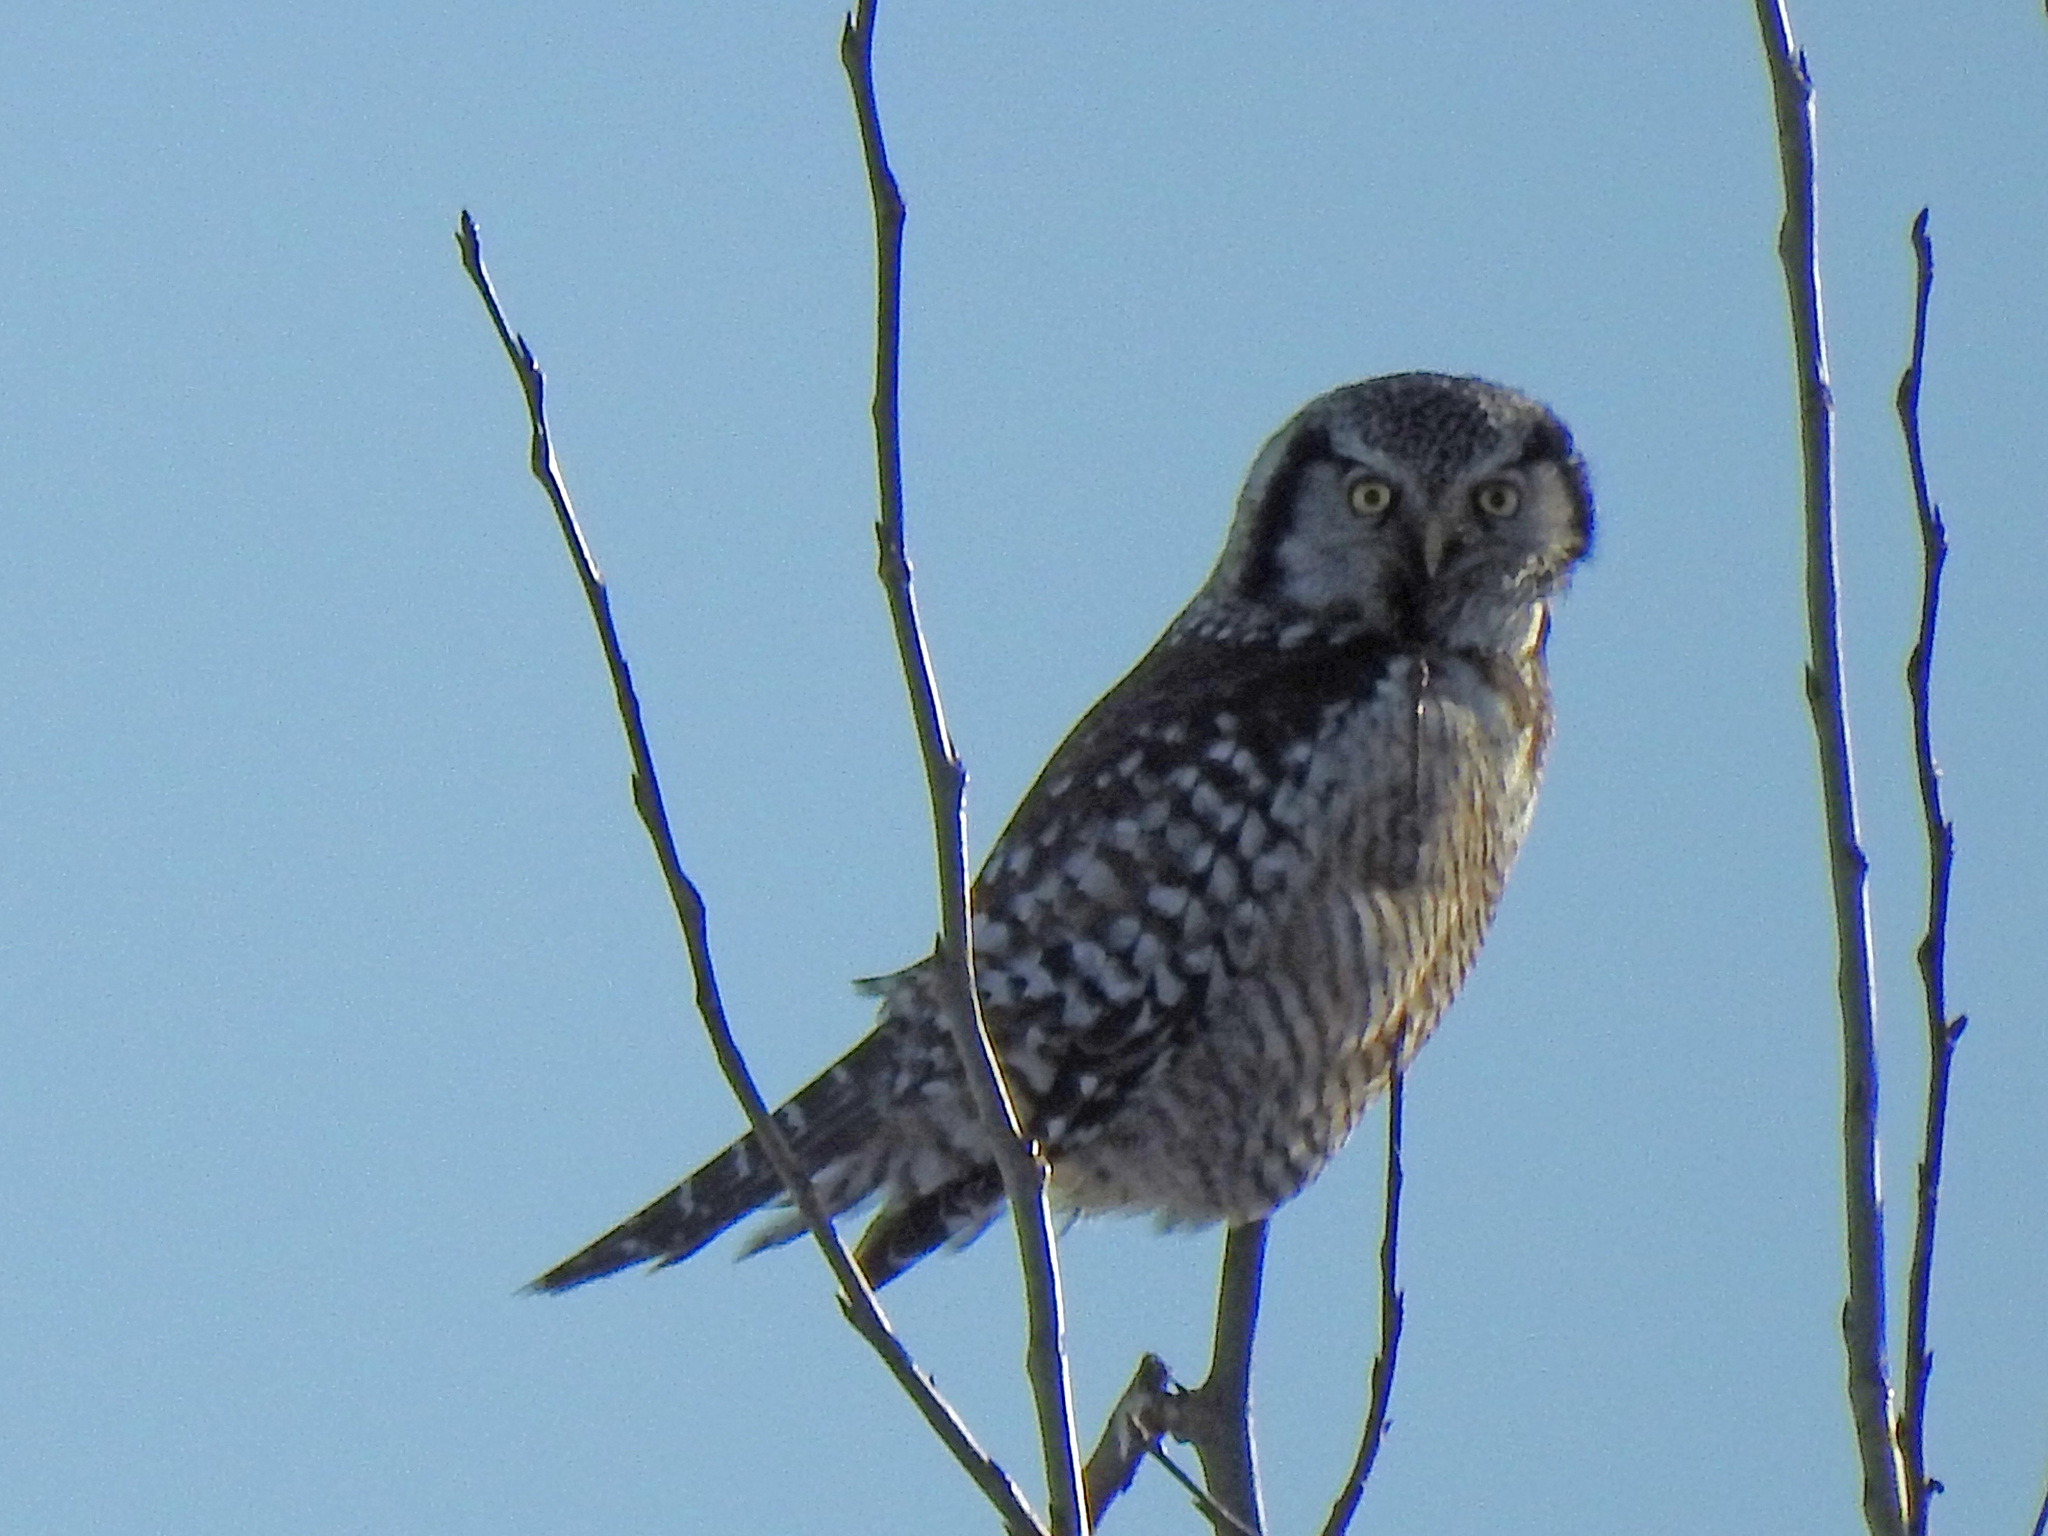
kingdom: Animalia
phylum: Chordata
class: Aves
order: Strigiformes
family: Strigidae
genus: Surnia
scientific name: Surnia ulula
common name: Northern hawk-owl
